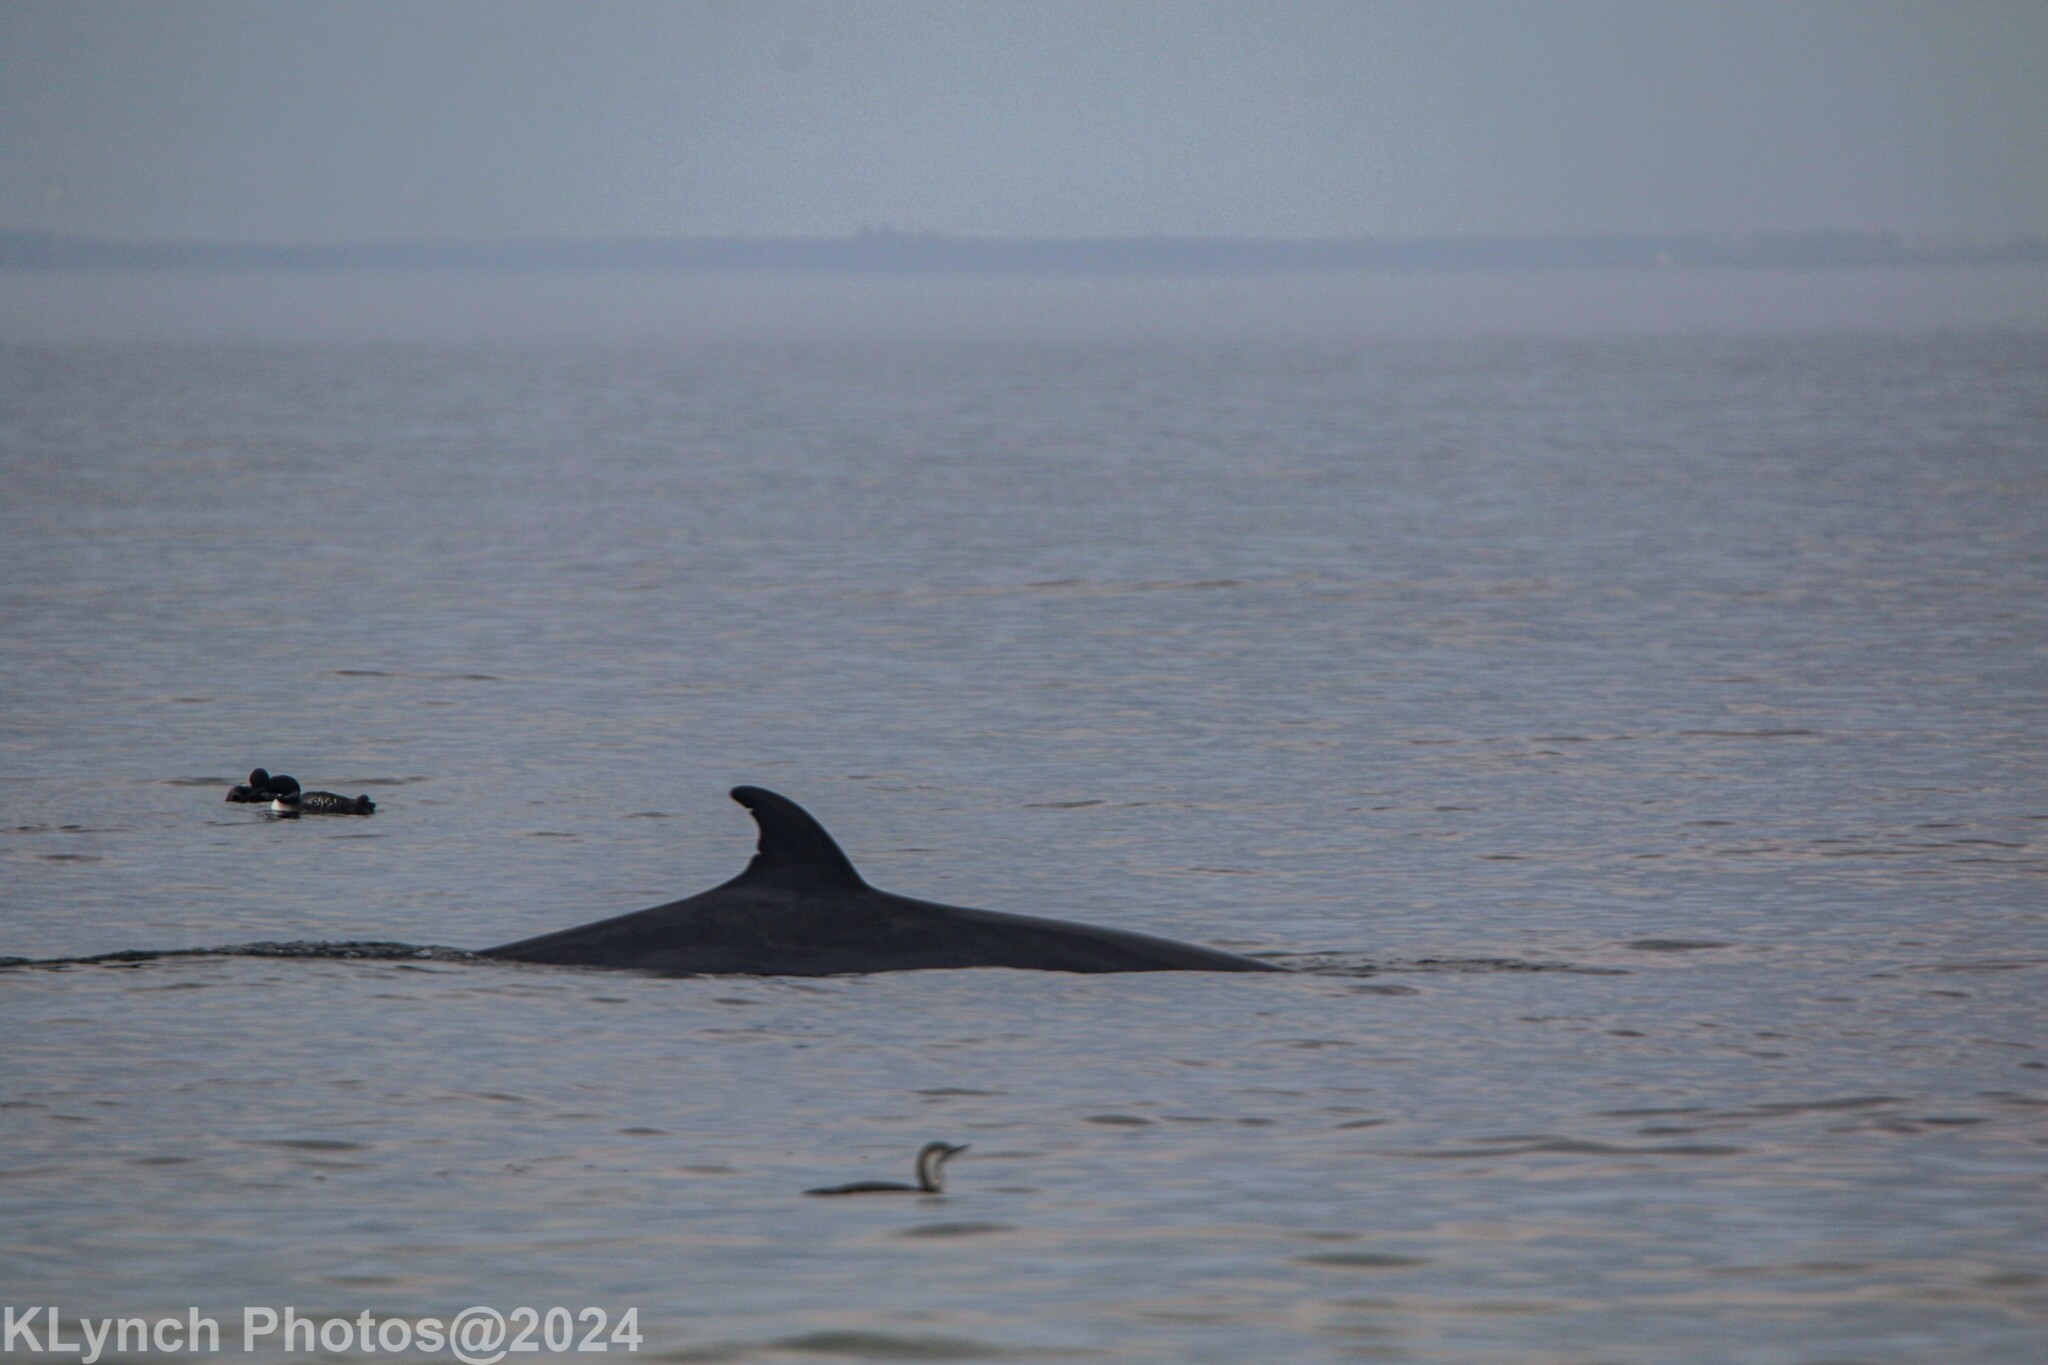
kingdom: Animalia
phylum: Chordata
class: Mammalia
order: Cetacea
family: Balaenopteridae
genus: Balaenoptera
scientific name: Balaenoptera acutorostrata
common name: Common minke whale
